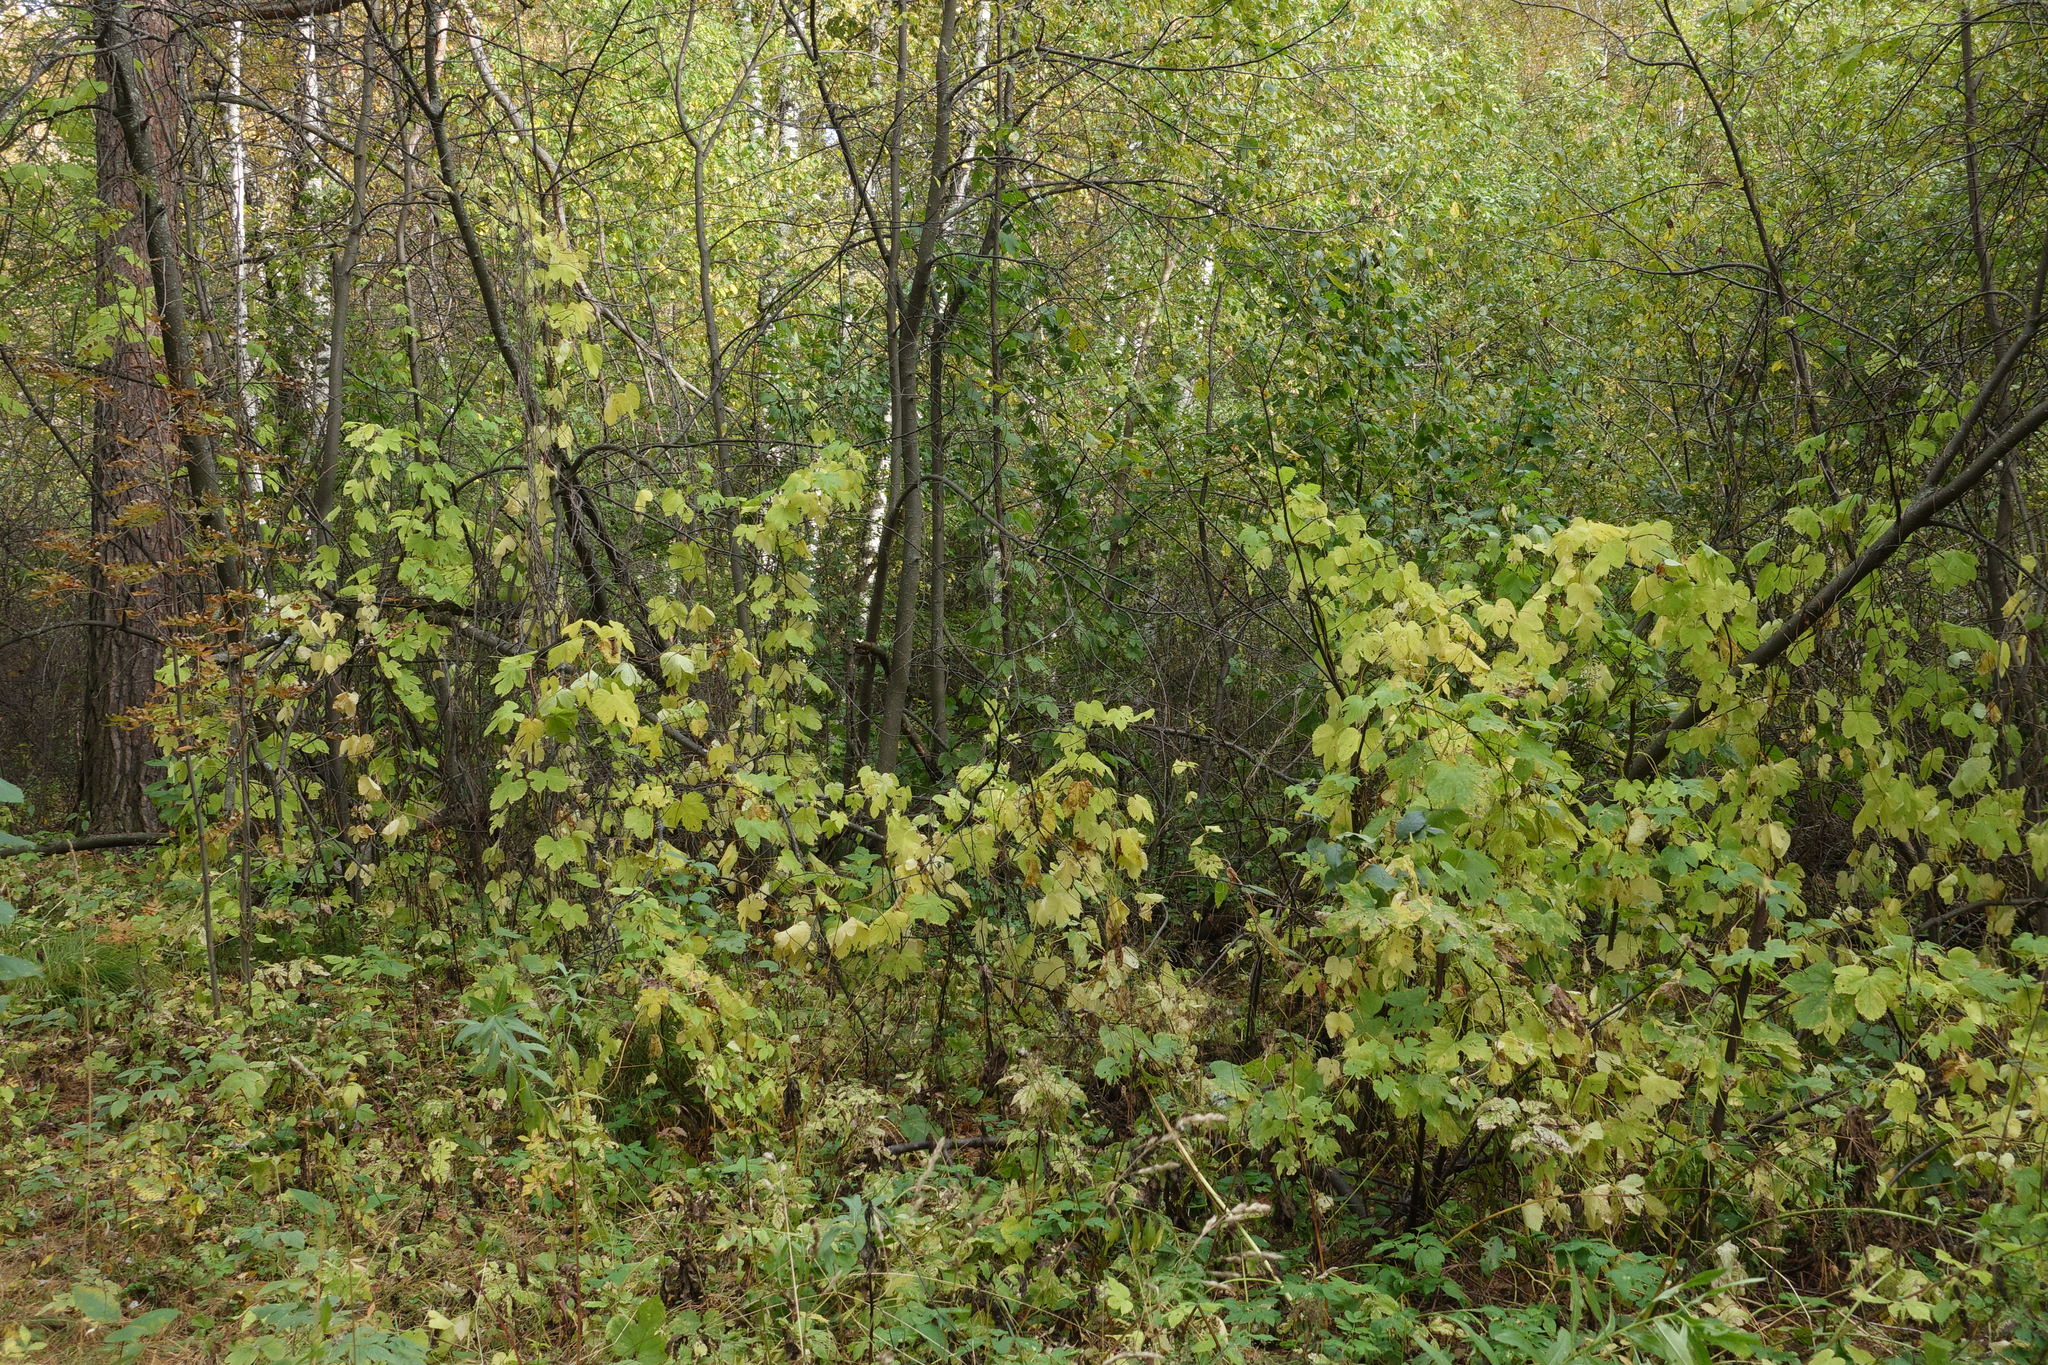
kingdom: Plantae
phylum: Tracheophyta
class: Magnoliopsida
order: Rosales
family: Cannabaceae
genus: Humulus
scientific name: Humulus lupulus
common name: Hop
